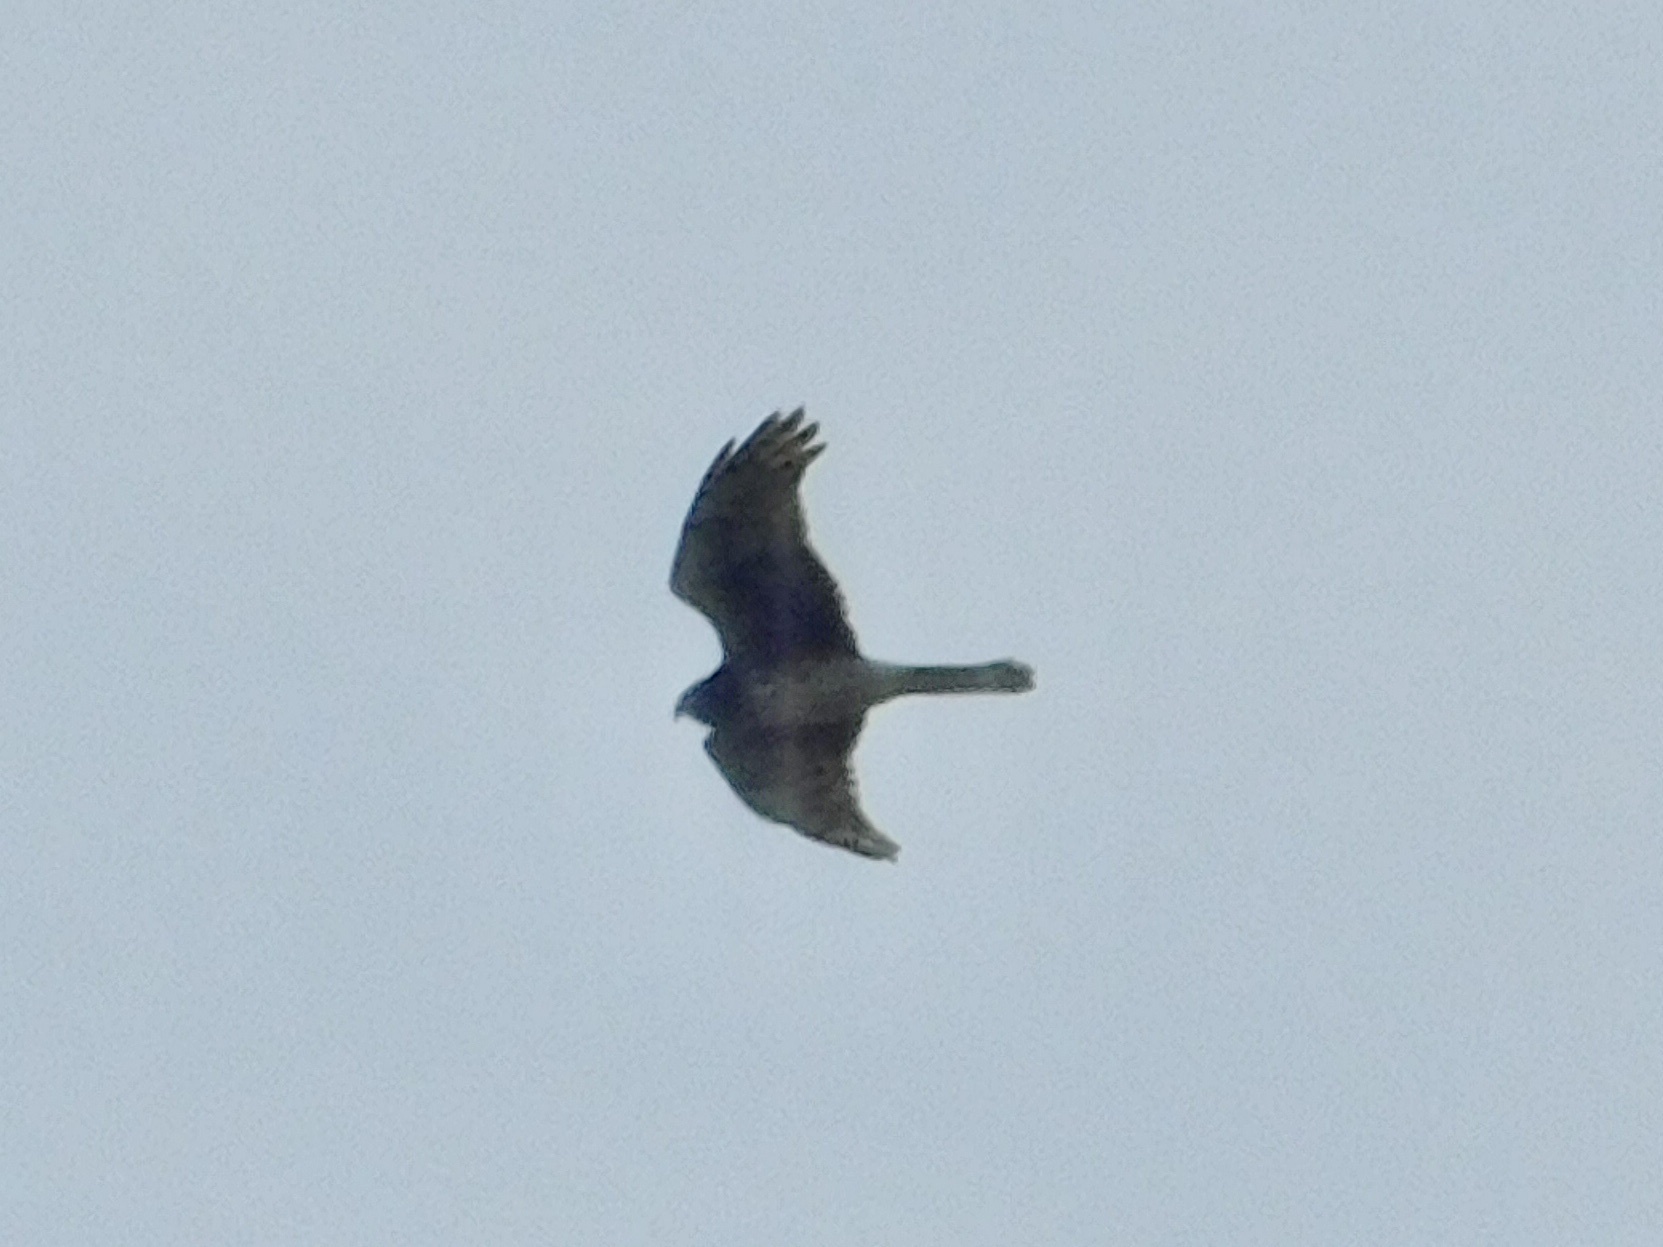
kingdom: Animalia
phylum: Chordata
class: Aves
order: Accipitriformes
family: Accipitridae
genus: Circus
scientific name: Circus cyaneus
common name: Hen harrier
